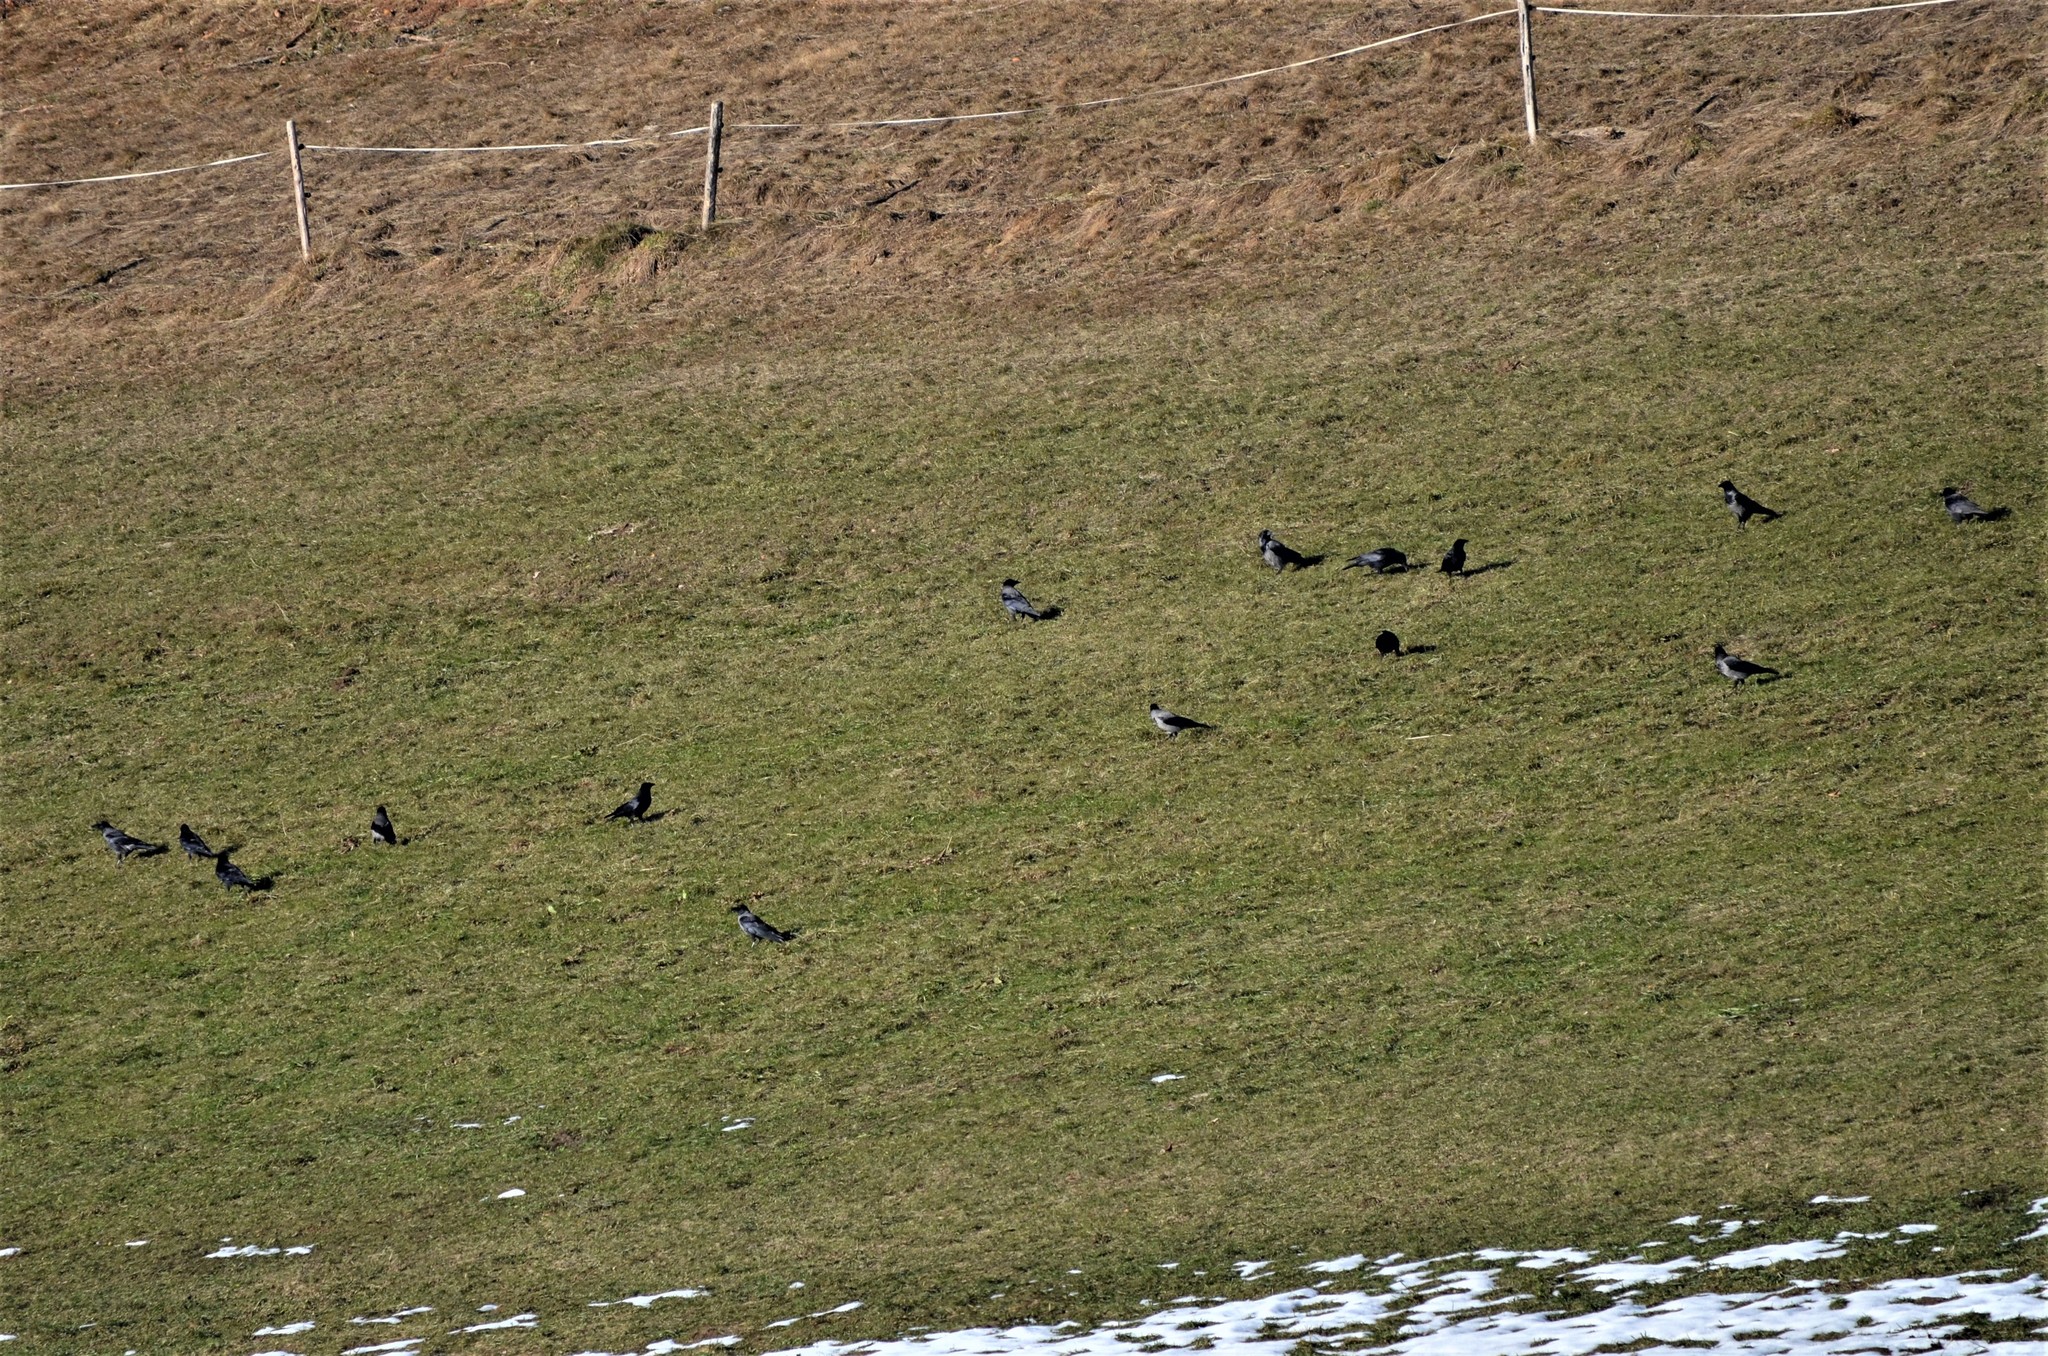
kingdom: Animalia
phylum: Chordata
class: Aves
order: Passeriformes
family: Corvidae
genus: Corvus
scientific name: Corvus corone
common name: Carrion crow
